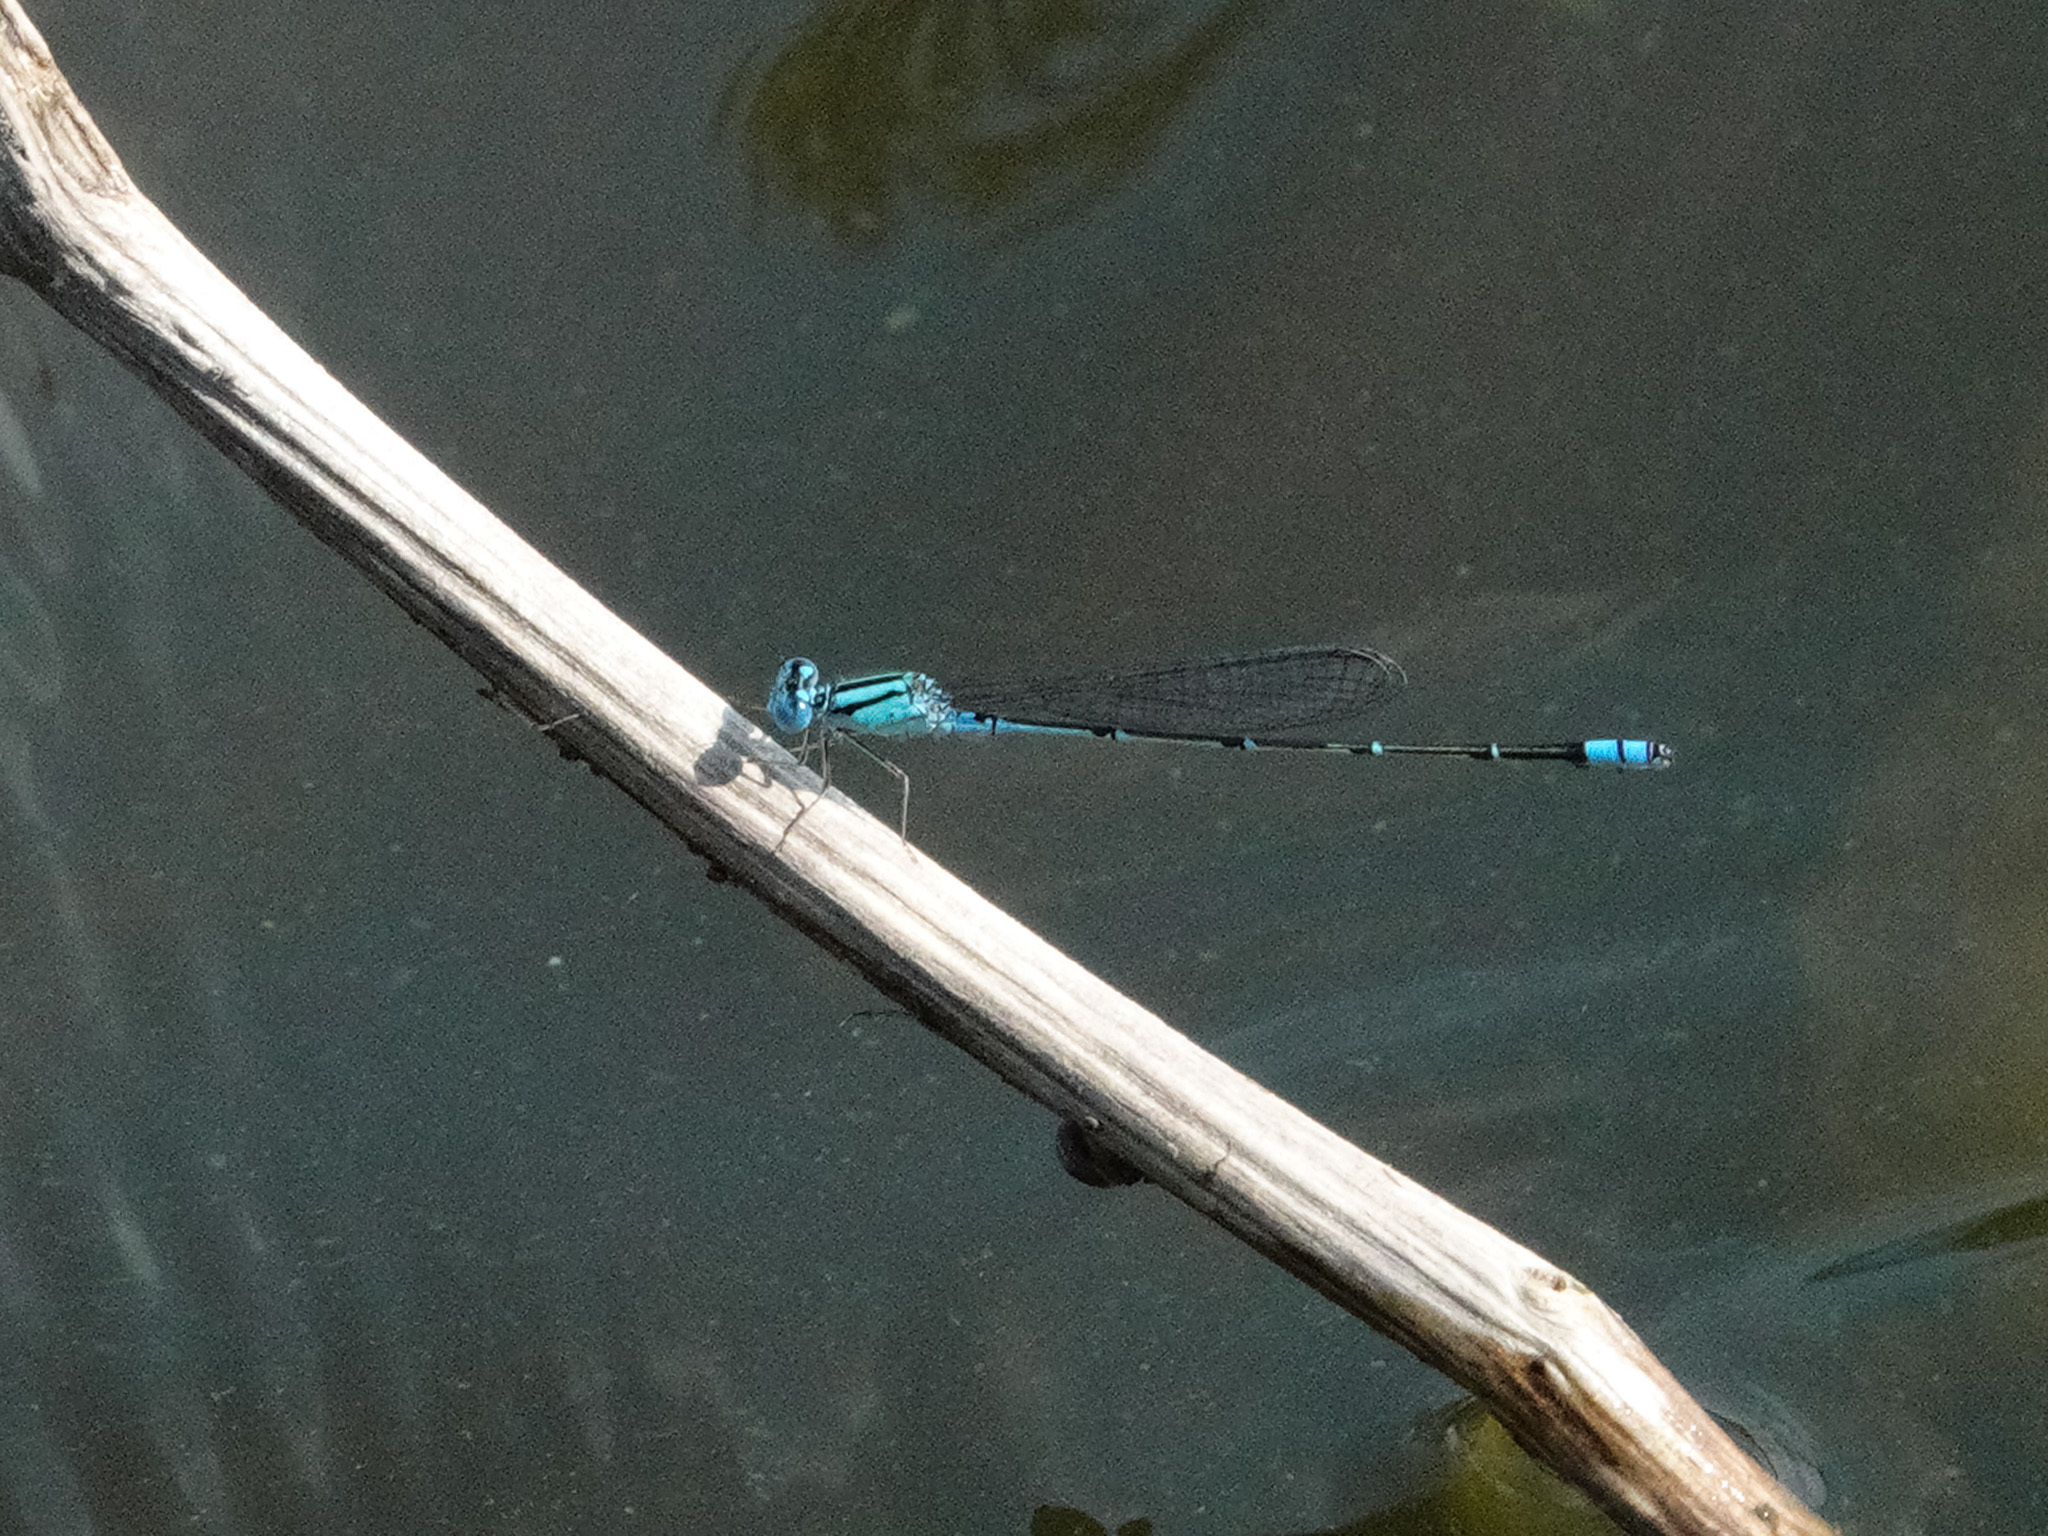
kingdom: Animalia
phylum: Arthropoda
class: Insecta
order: Odonata
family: Coenagrionidae
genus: Pseudagrion
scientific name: Pseudagrion microcephalum
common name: Blue riverdamsel
